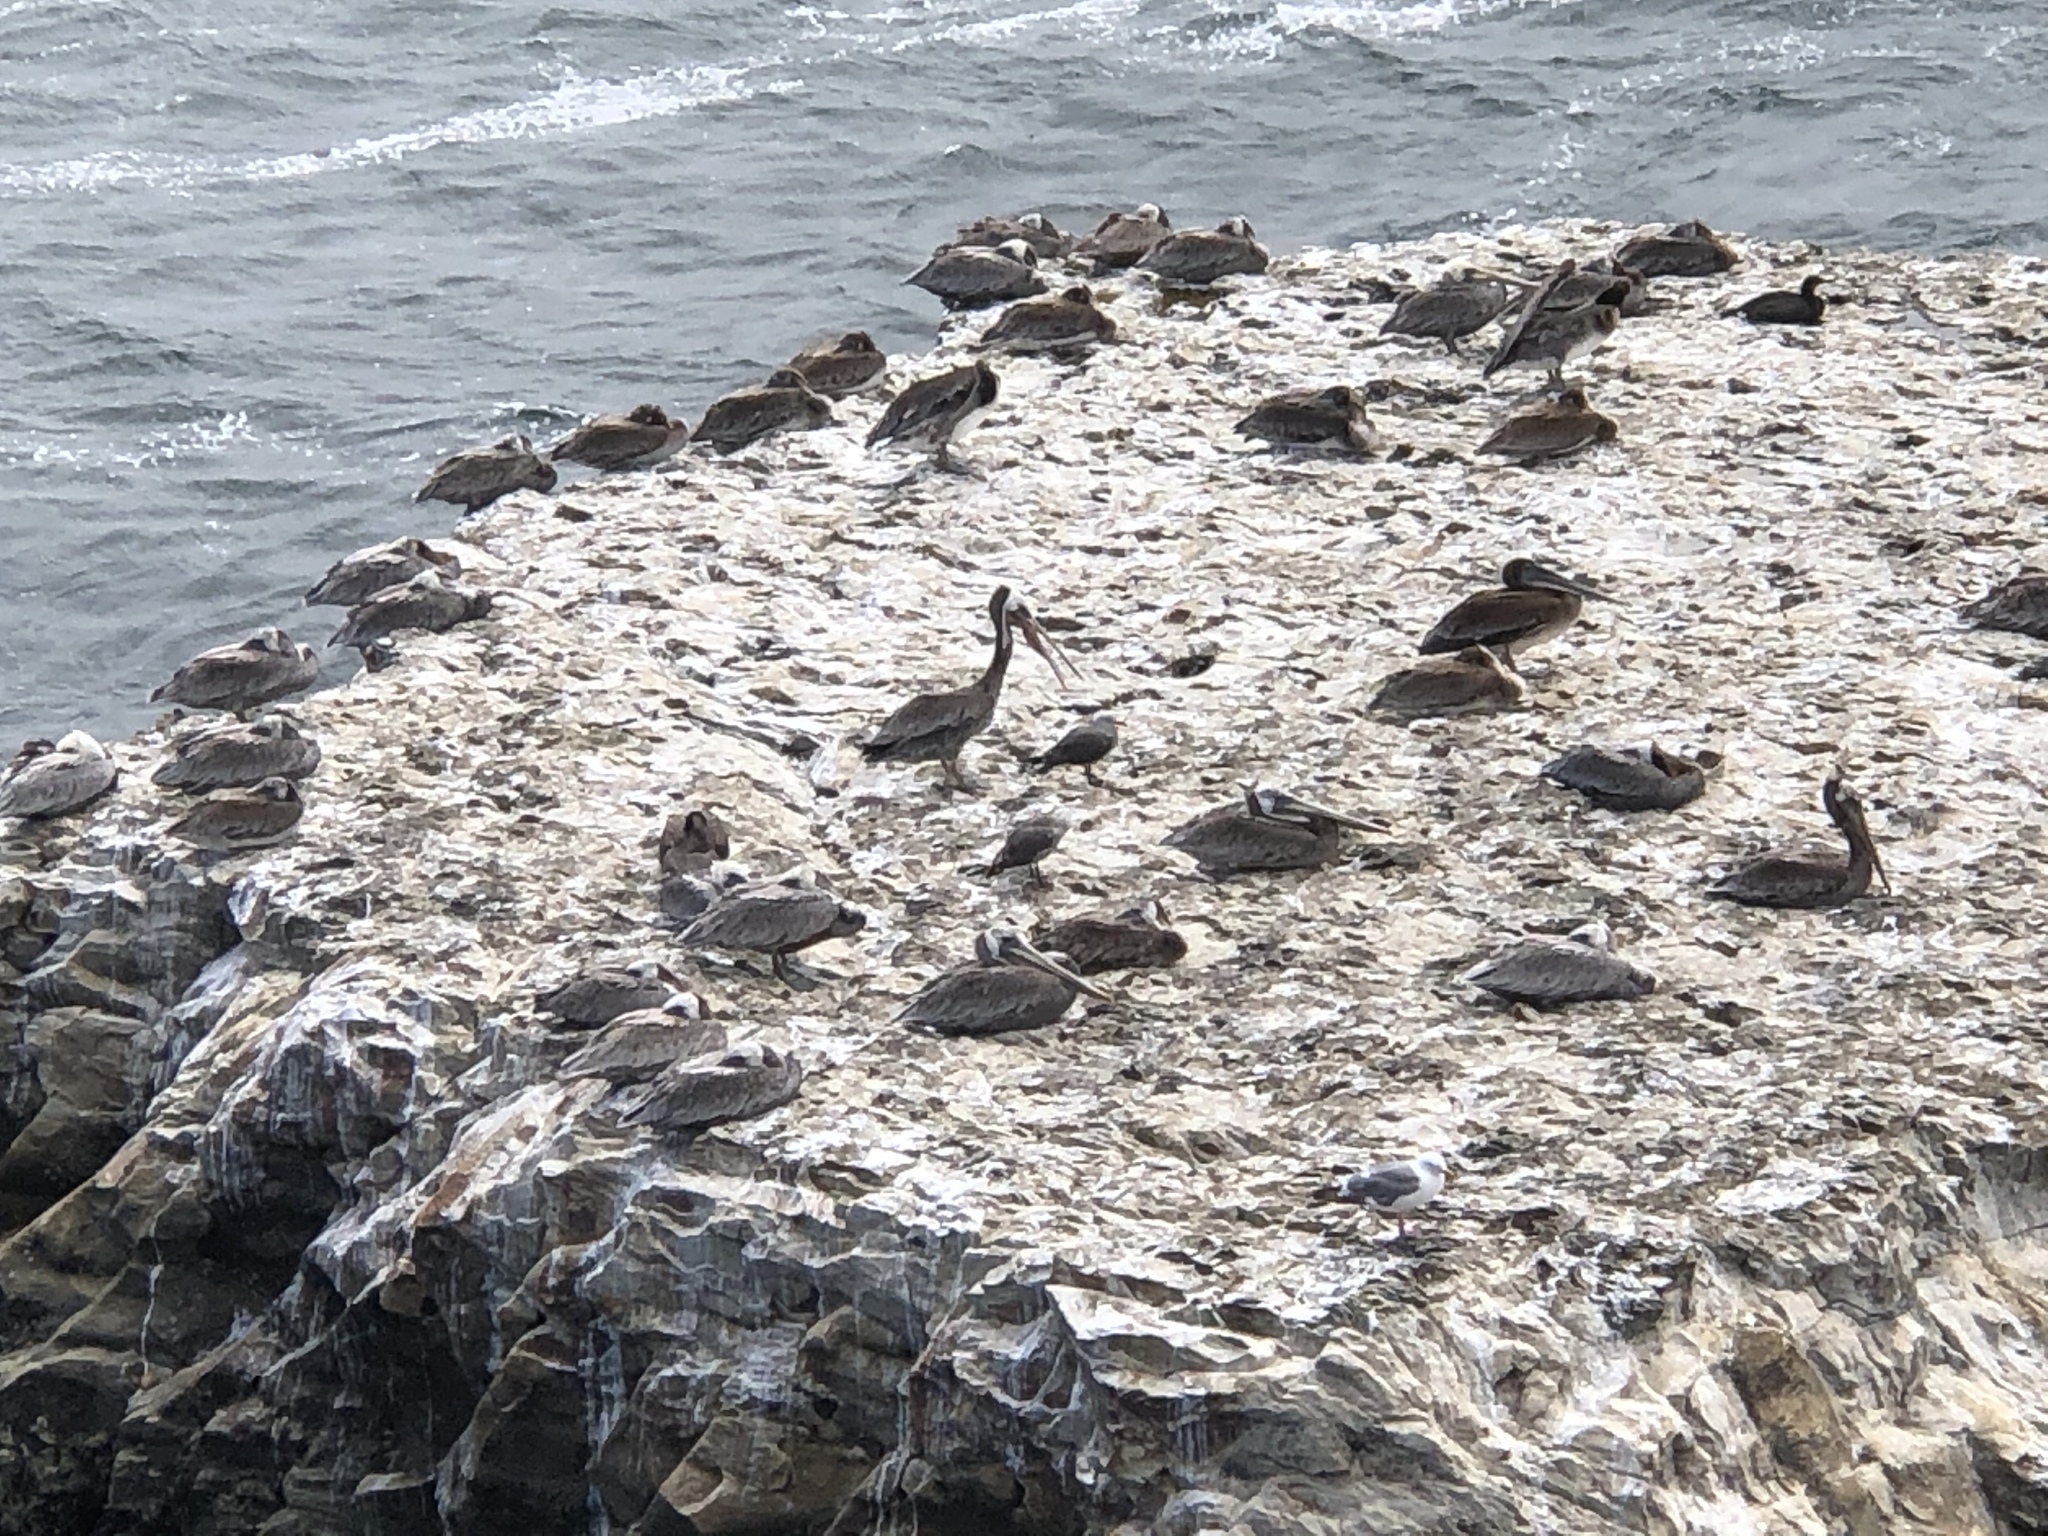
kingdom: Animalia
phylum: Chordata
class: Aves
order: Pelecaniformes
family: Pelecanidae
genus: Pelecanus
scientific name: Pelecanus occidentalis
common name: Brown pelican
